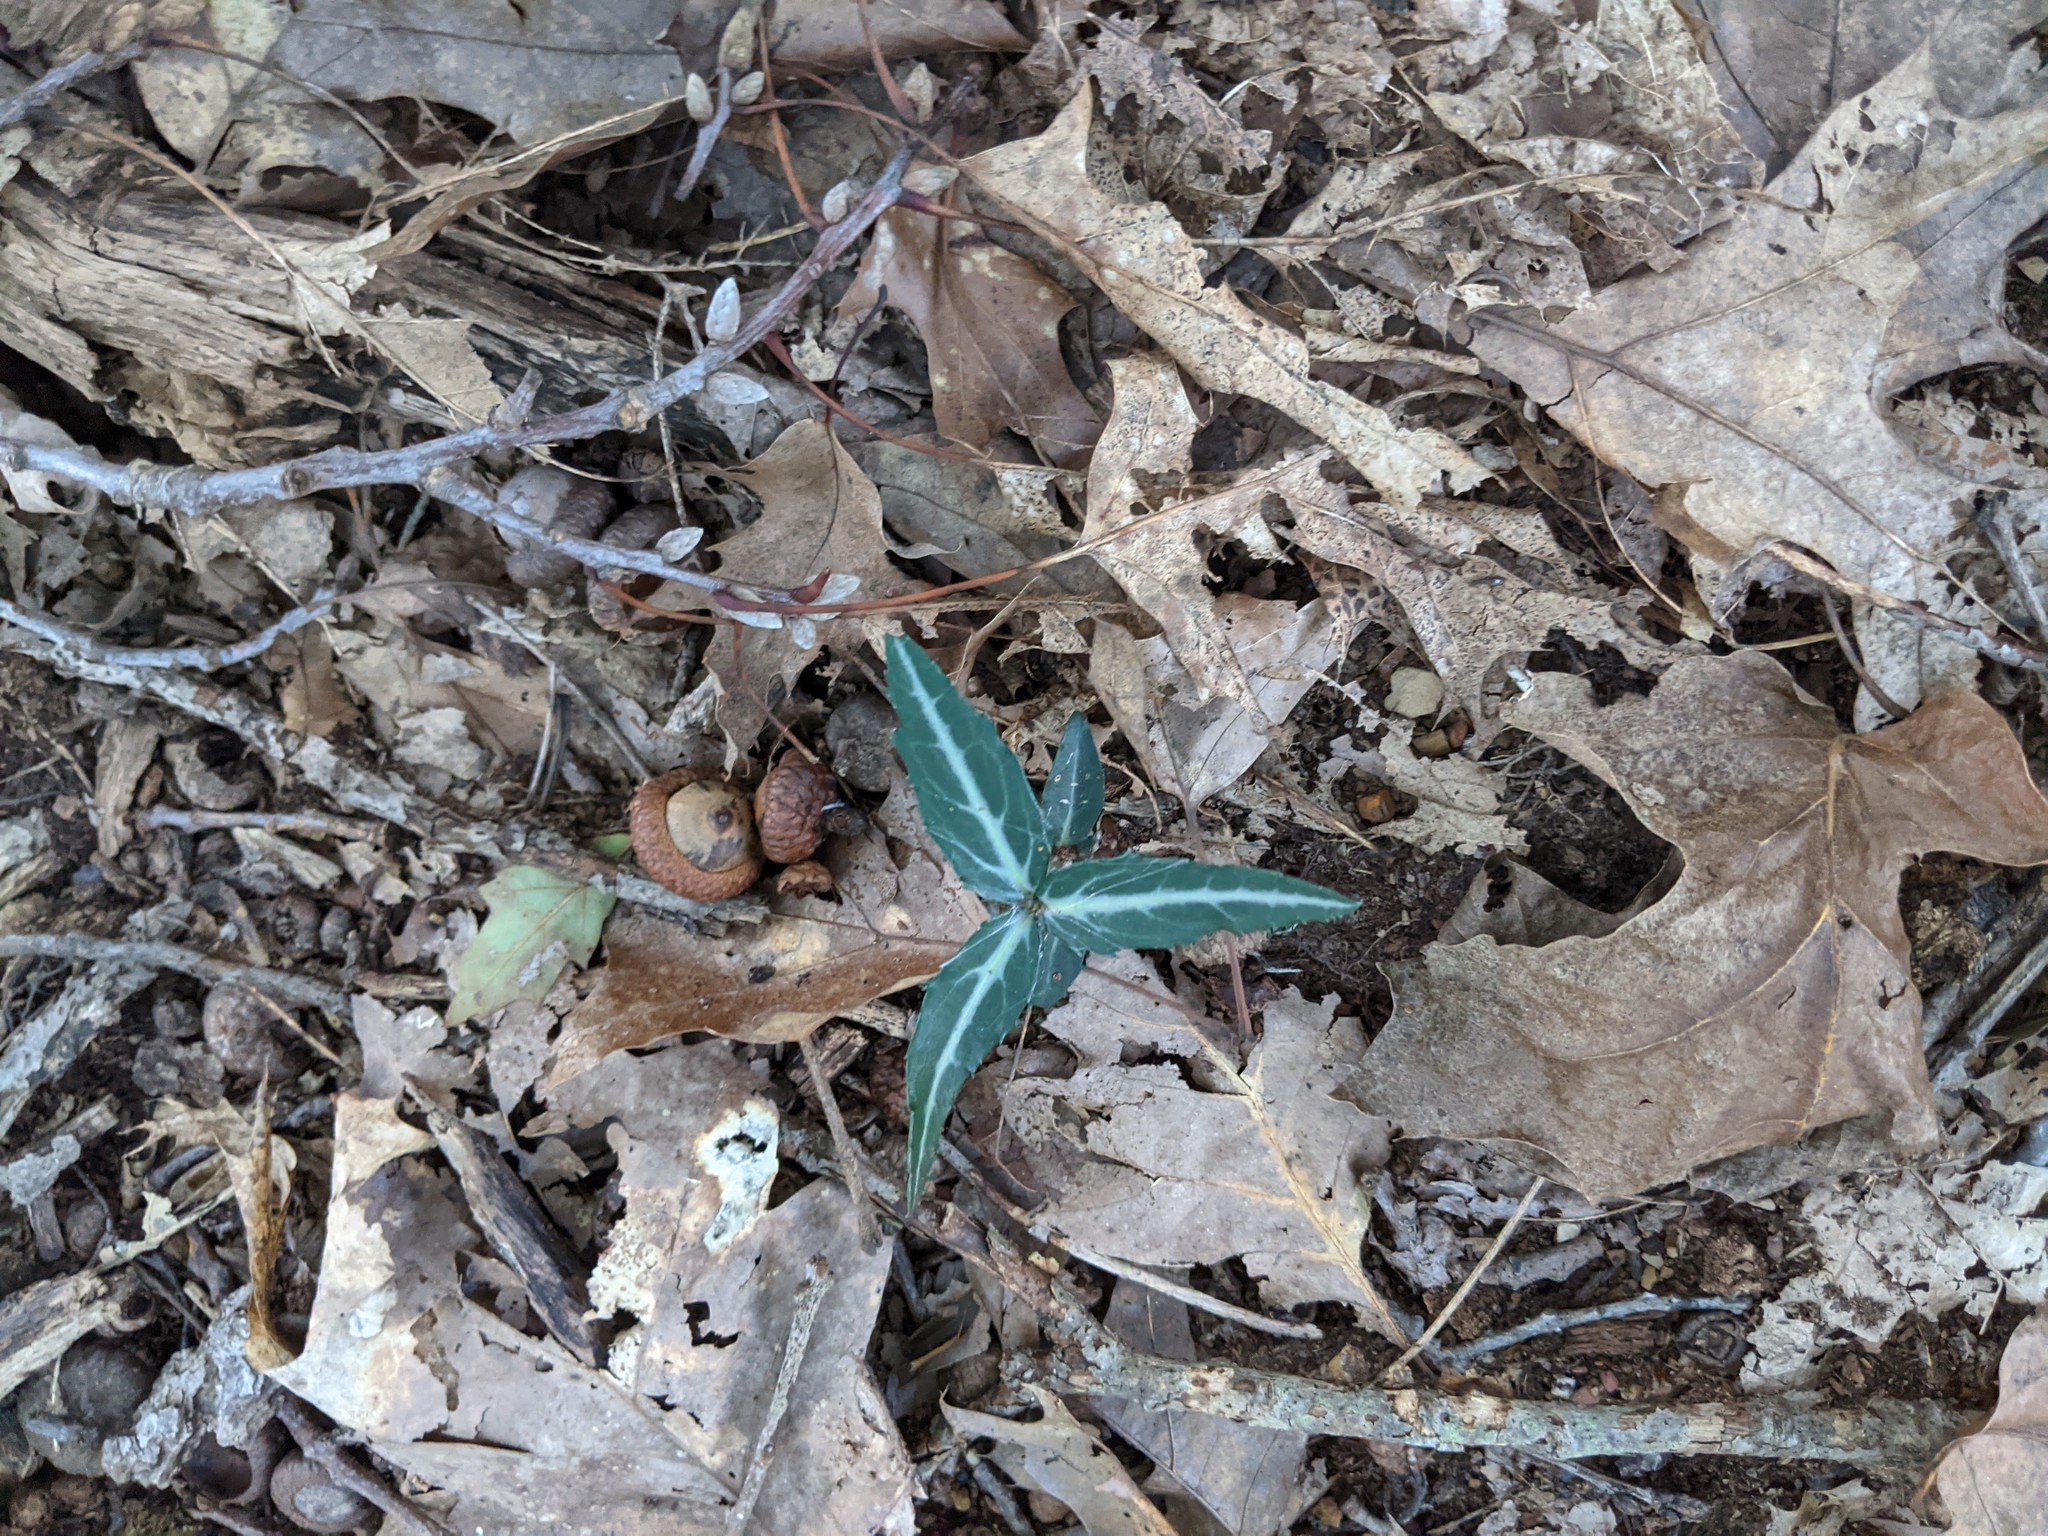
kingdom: Plantae
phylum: Tracheophyta
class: Magnoliopsida
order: Ericales
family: Ericaceae
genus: Chimaphila
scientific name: Chimaphila maculata
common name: Spotted pipsissewa
